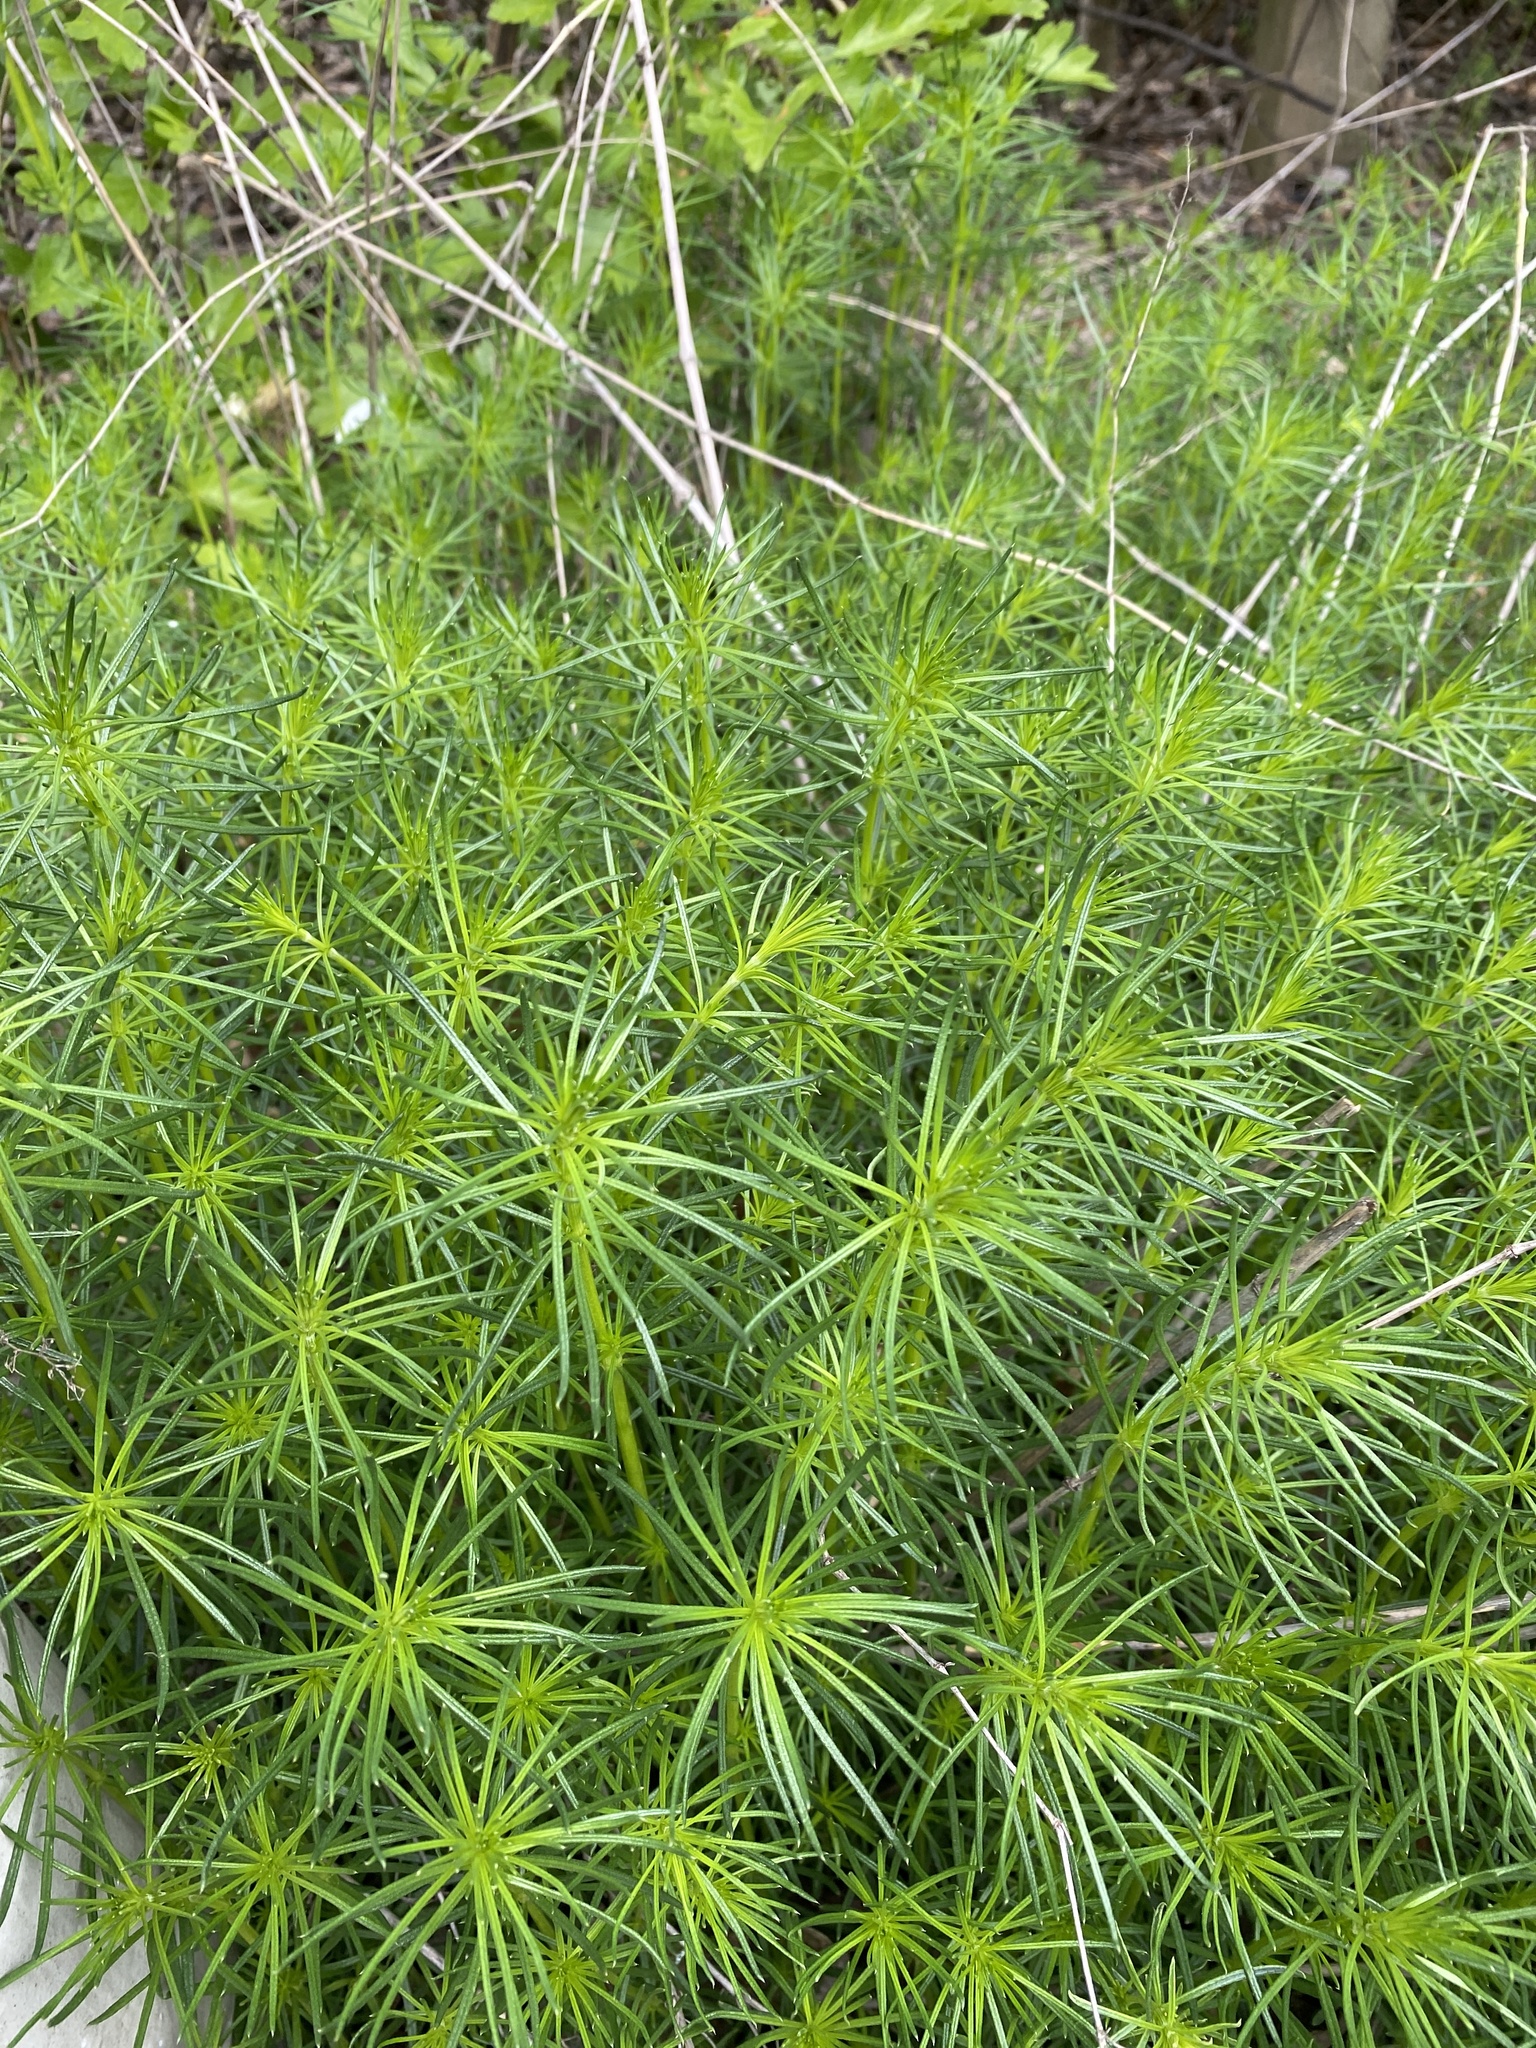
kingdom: Plantae
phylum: Tracheophyta
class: Magnoliopsida
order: Gentianales
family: Rubiaceae
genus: Galium
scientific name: Galium verum
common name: Lady's bedstraw
